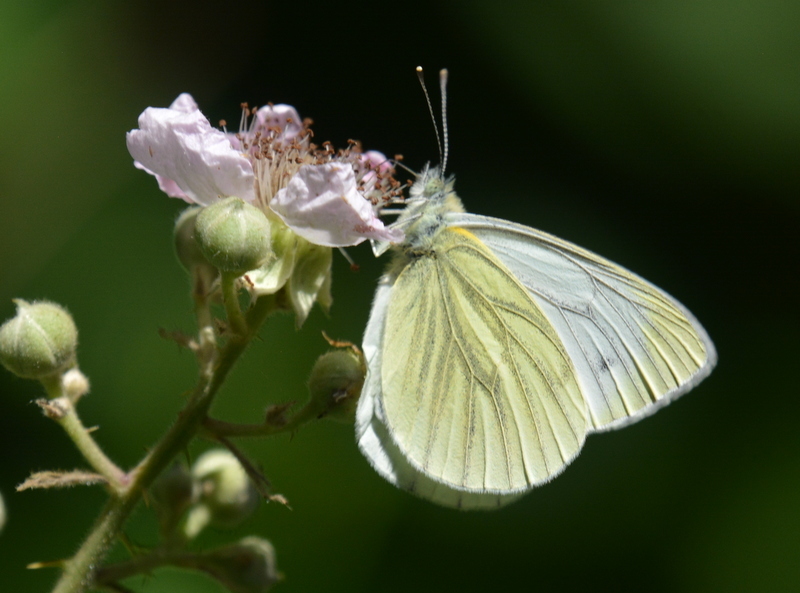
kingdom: Animalia
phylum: Arthropoda
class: Insecta
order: Lepidoptera
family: Pieridae
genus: Pieris
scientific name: Pieris napi
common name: Green-veined white
